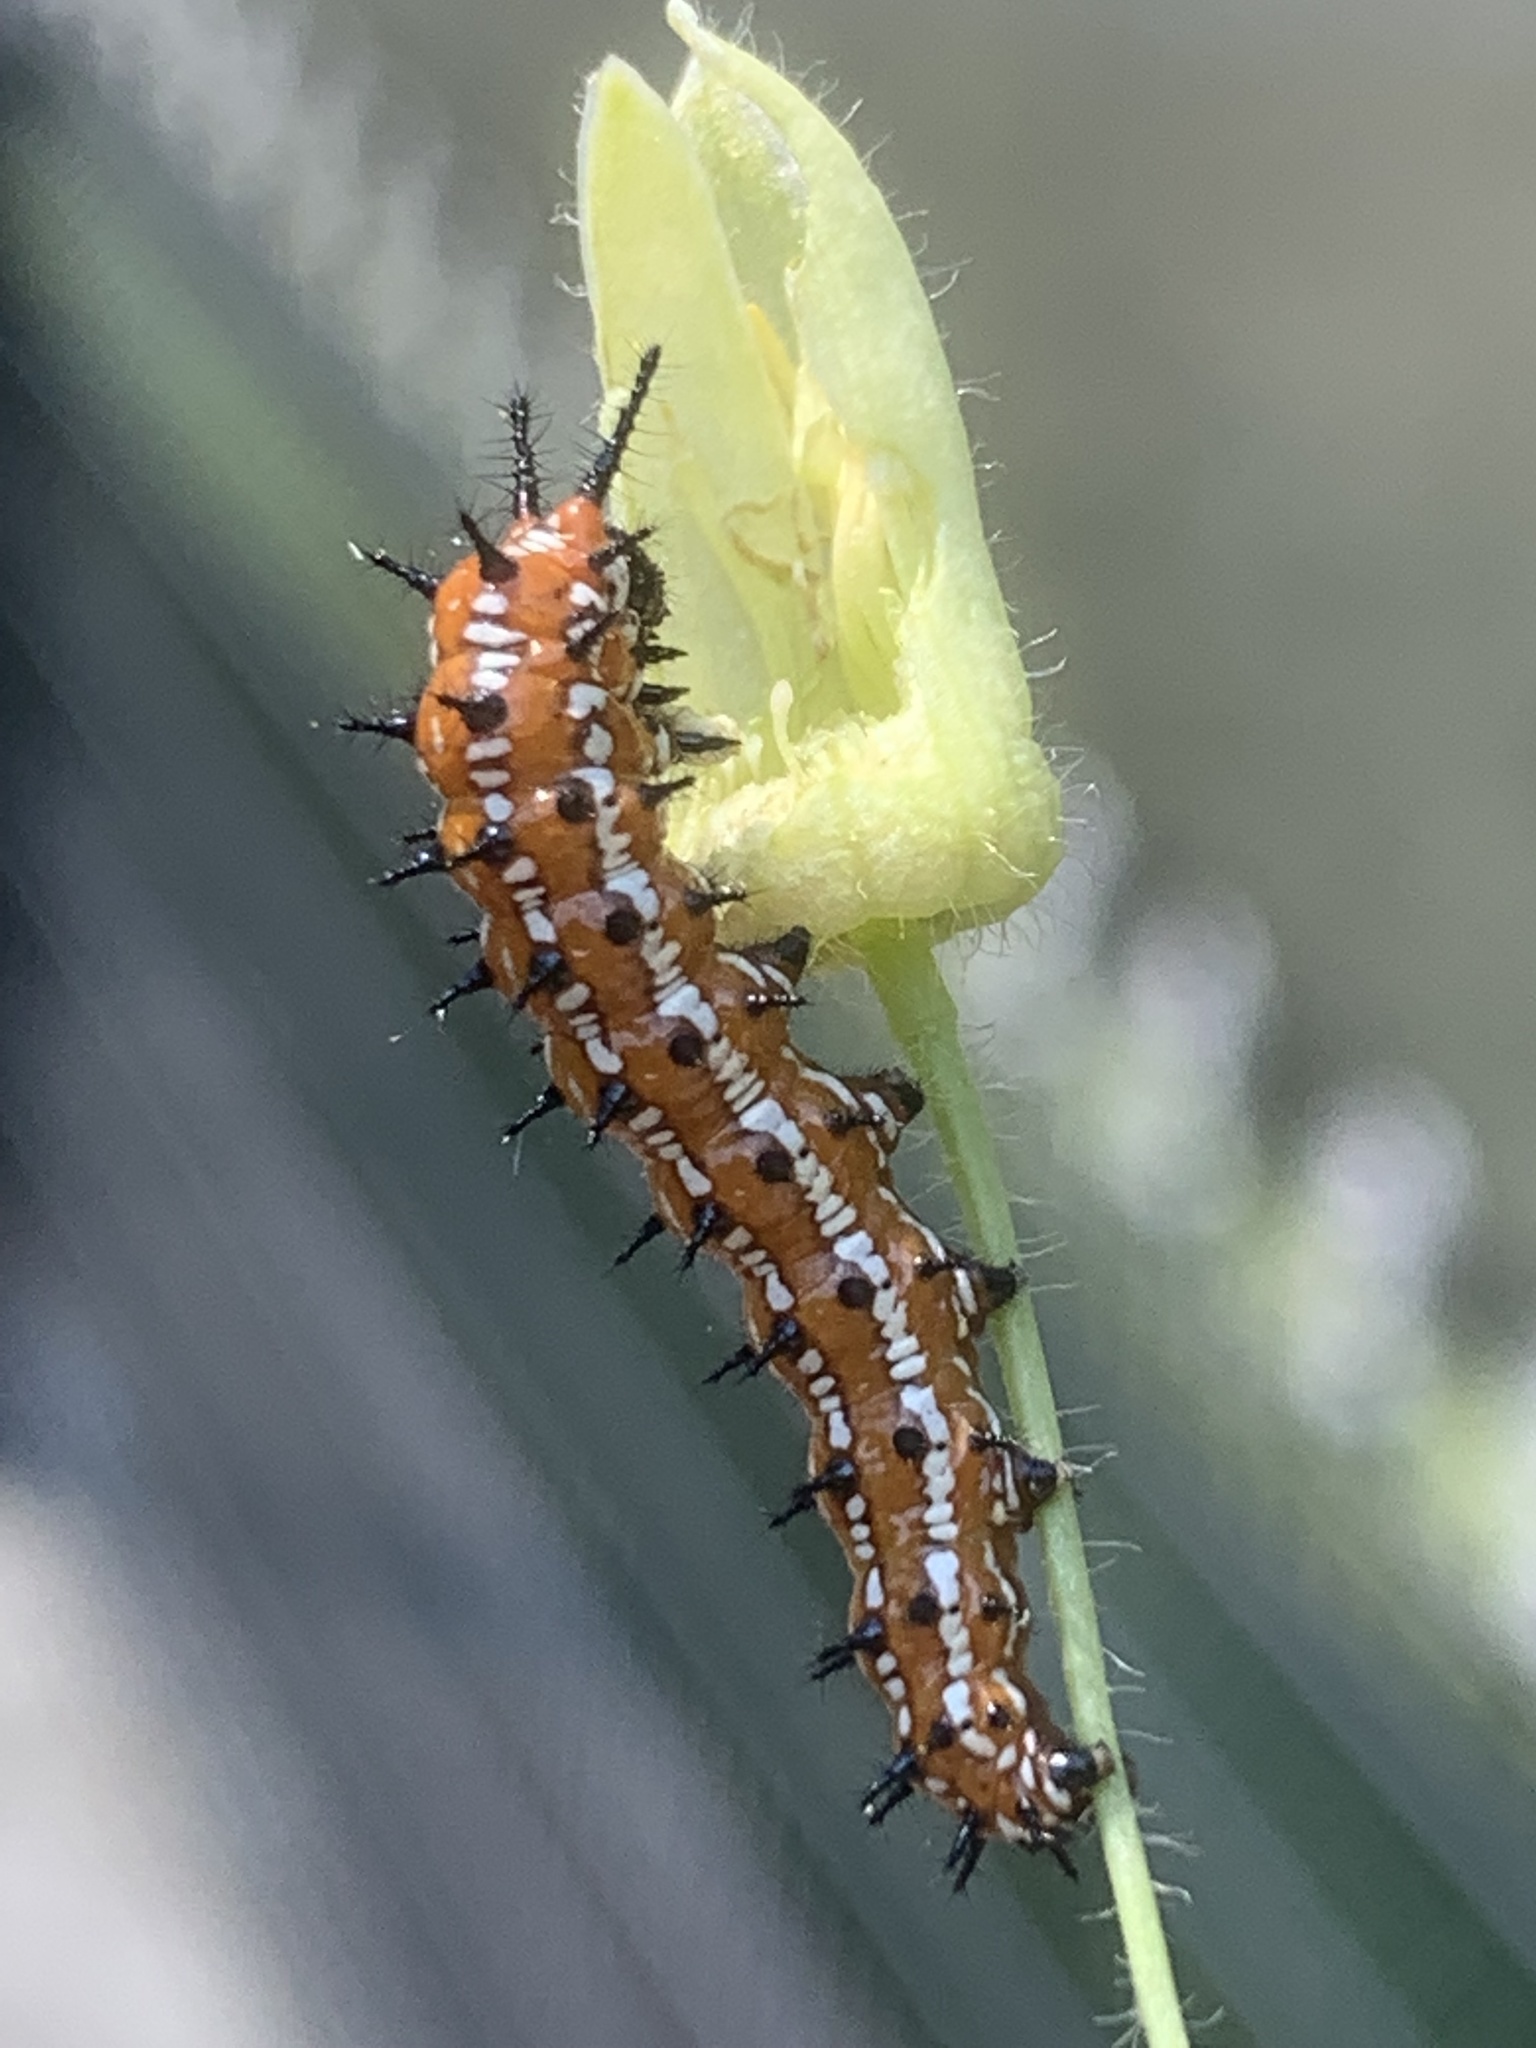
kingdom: Animalia
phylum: Arthropoda
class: Insecta
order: Lepidoptera
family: Nymphalidae
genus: Euptoieta
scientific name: Euptoieta claudia
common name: Variegated fritillary
